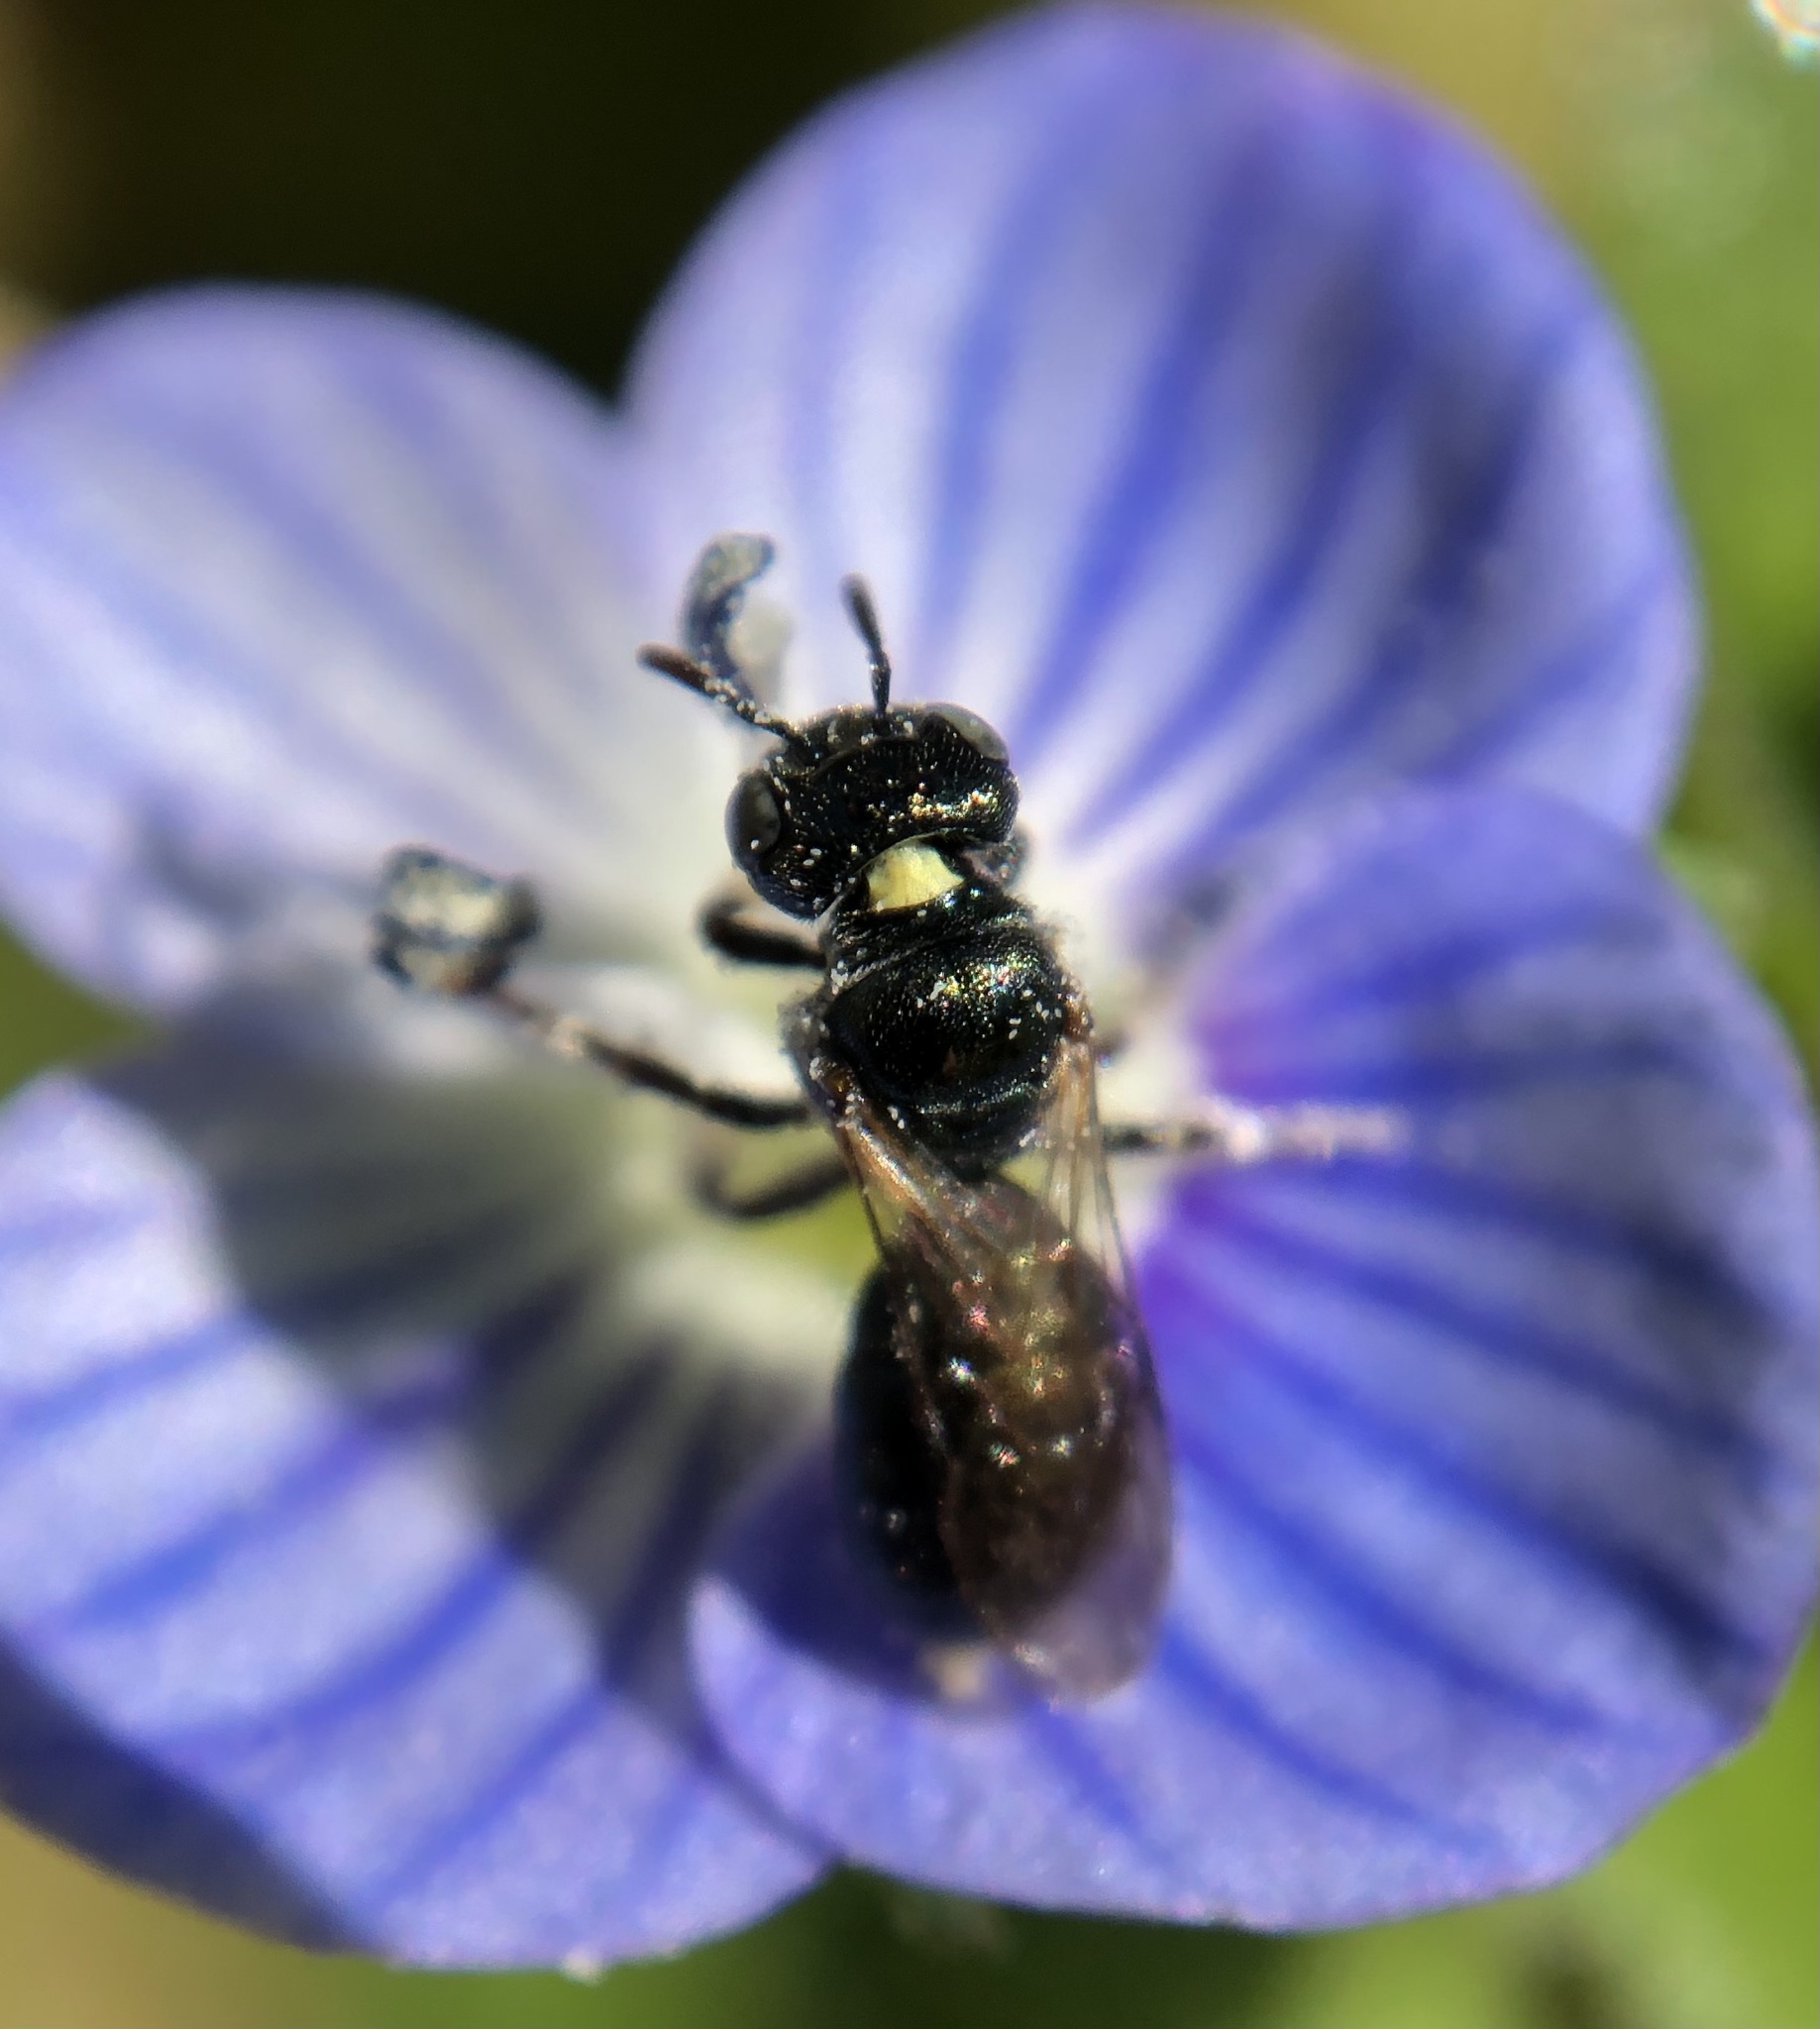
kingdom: Animalia
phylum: Arthropoda
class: Insecta
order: Hymenoptera
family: Apidae
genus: Ceratina
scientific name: Ceratina strenua
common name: Nimble carpenter bee
